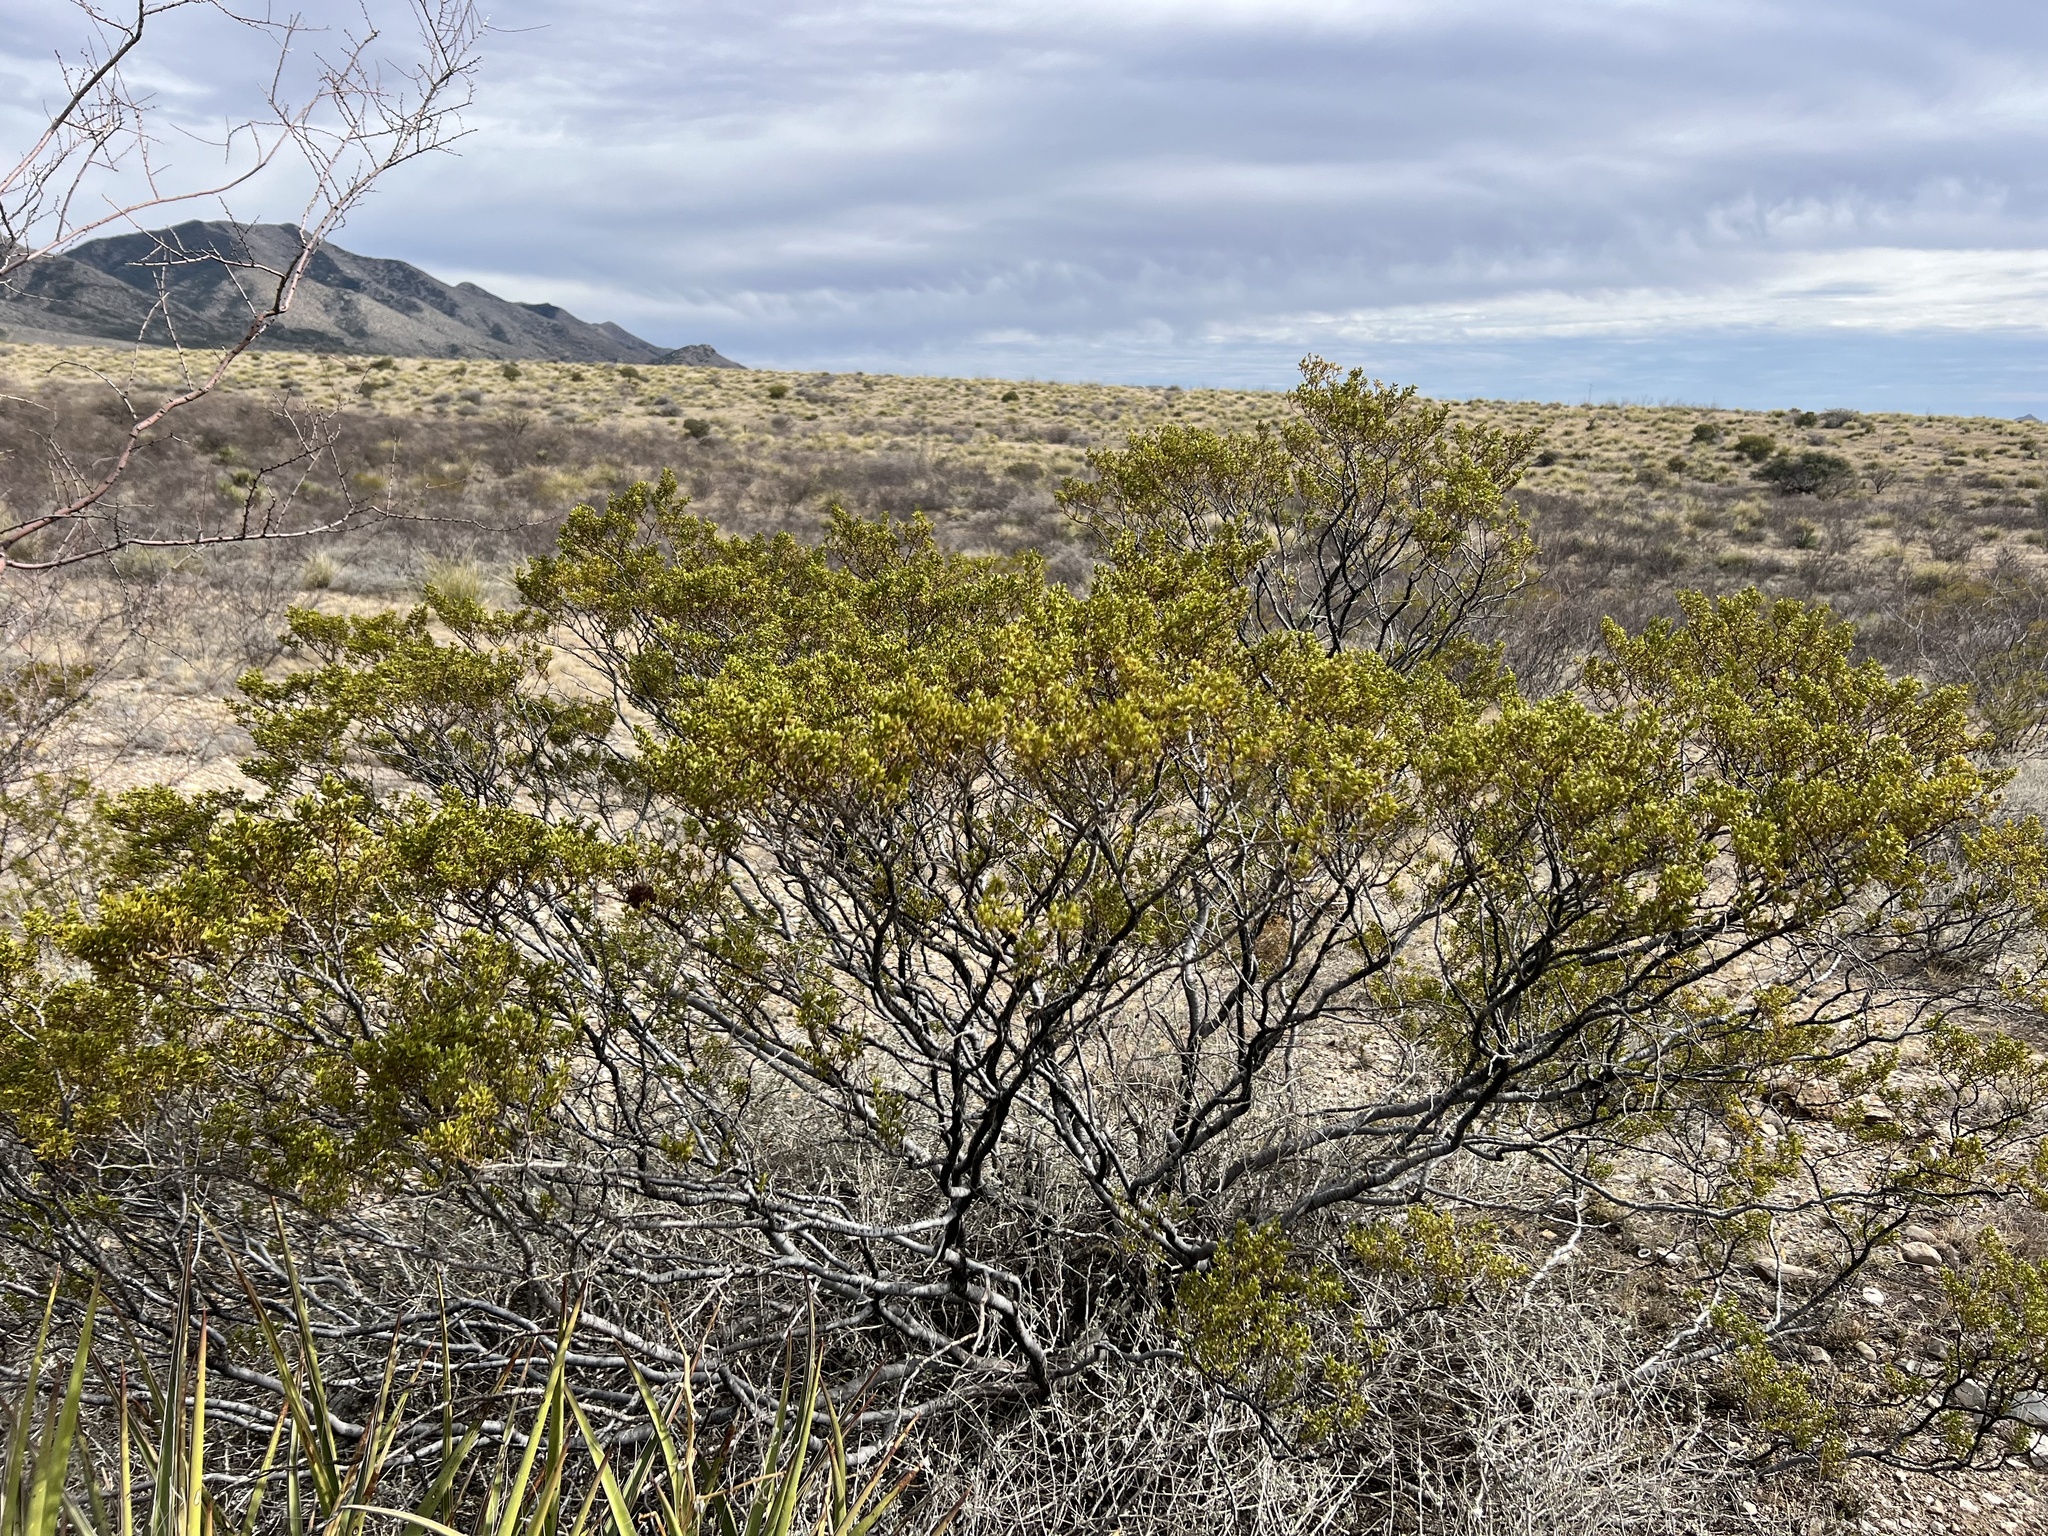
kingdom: Plantae
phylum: Tracheophyta
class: Magnoliopsida
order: Zygophyllales
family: Zygophyllaceae
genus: Larrea
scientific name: Larrea tridentata
